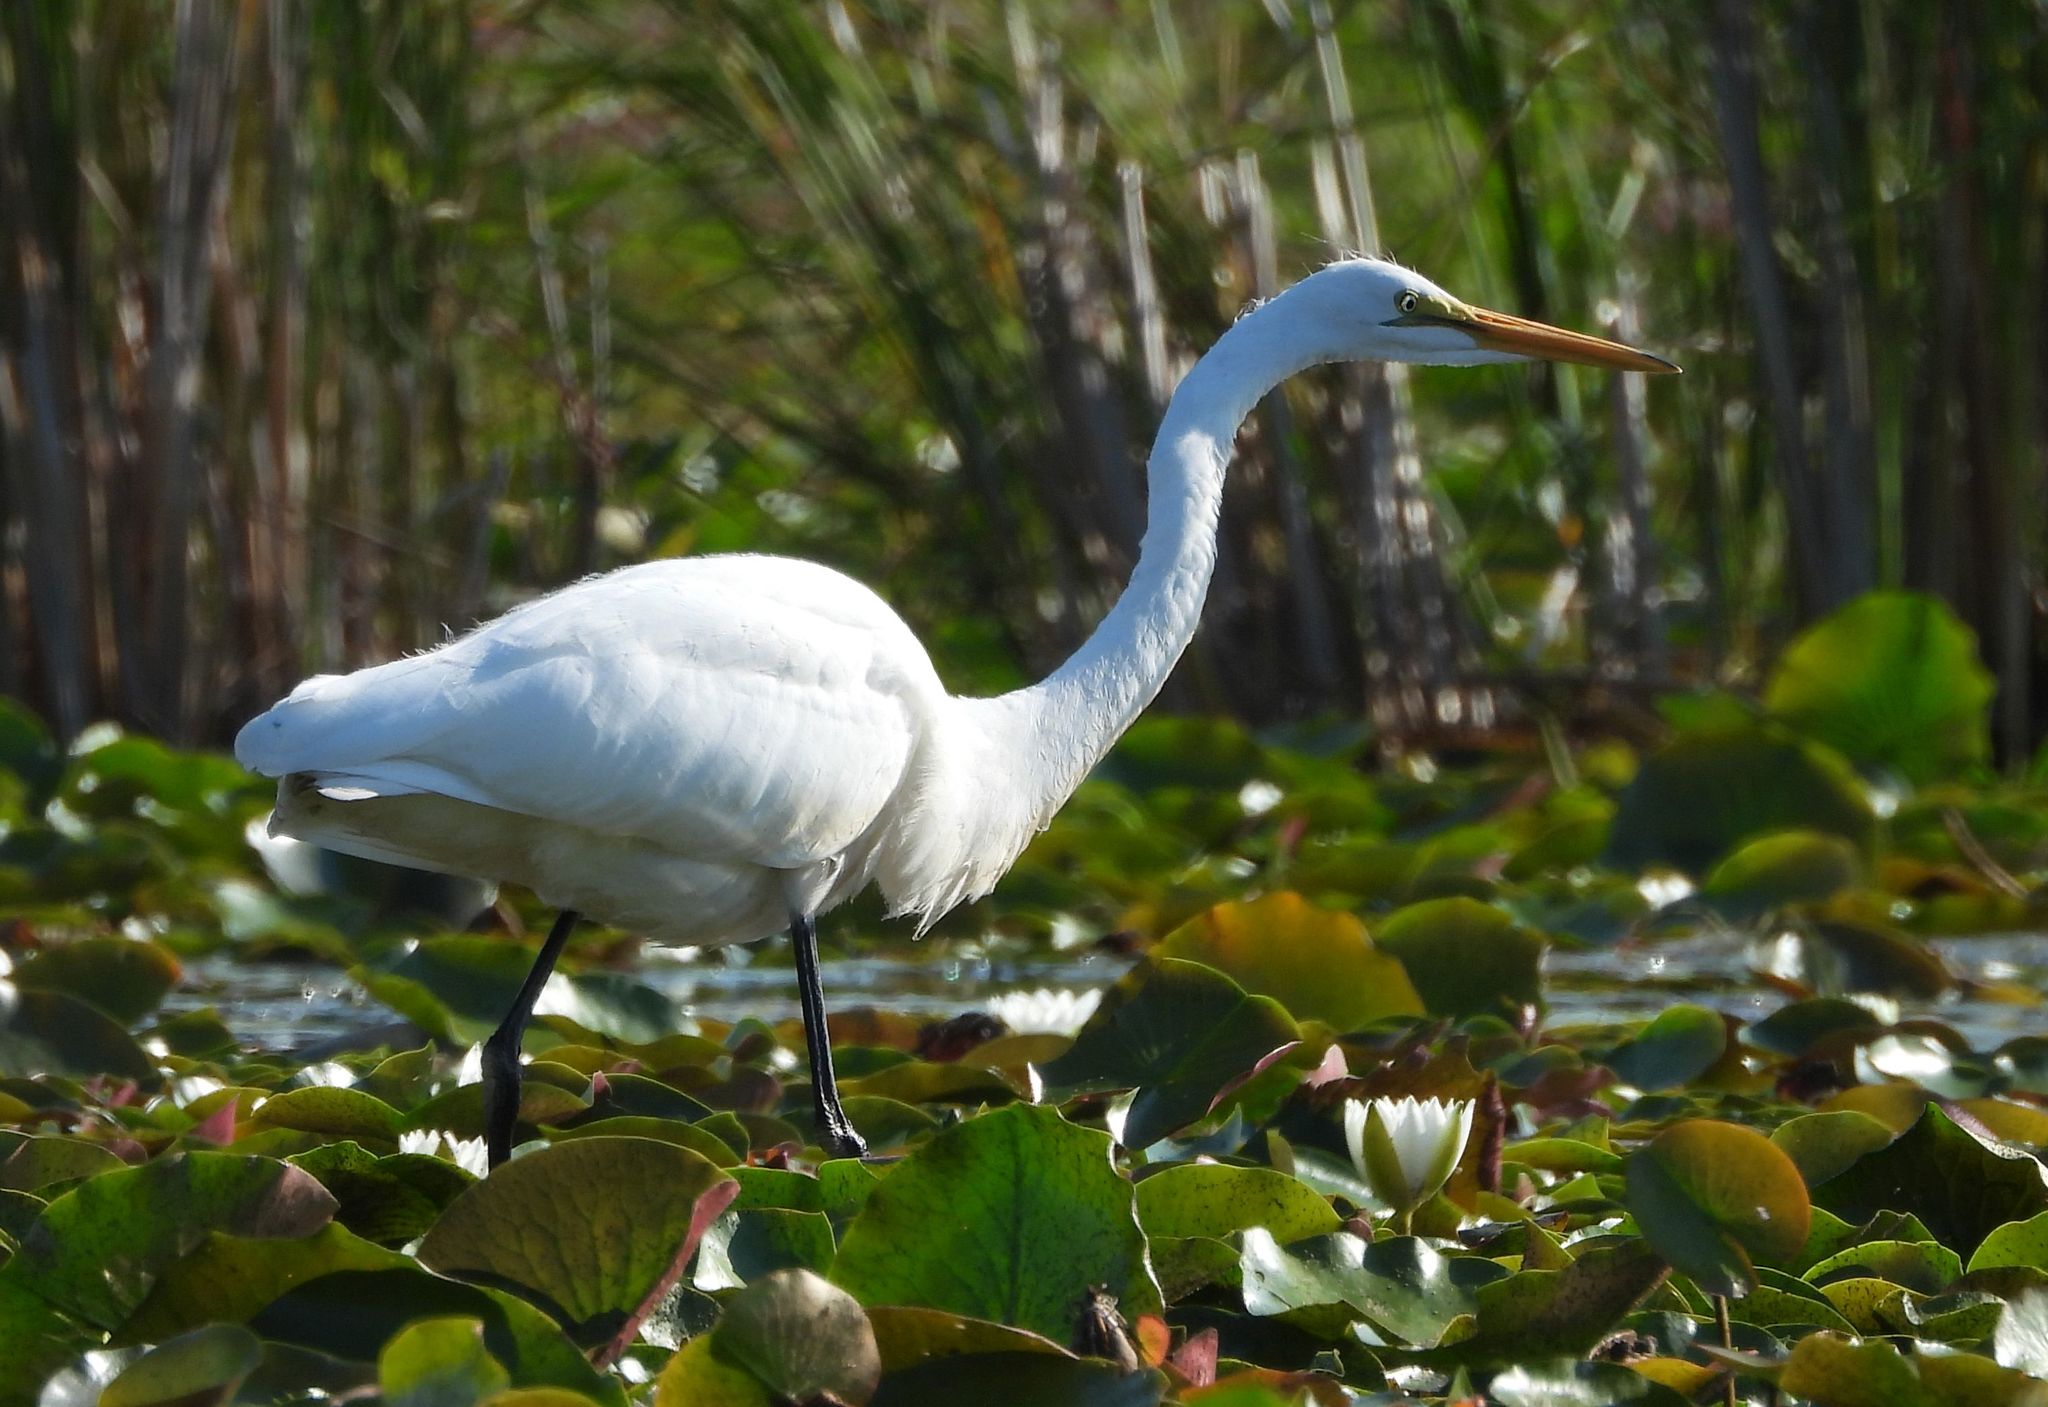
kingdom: Animalia
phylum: Chordata
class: Aves
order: Pelecaniformes
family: Ardeidae
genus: Ardea
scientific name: Ardea alba
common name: Great egret
